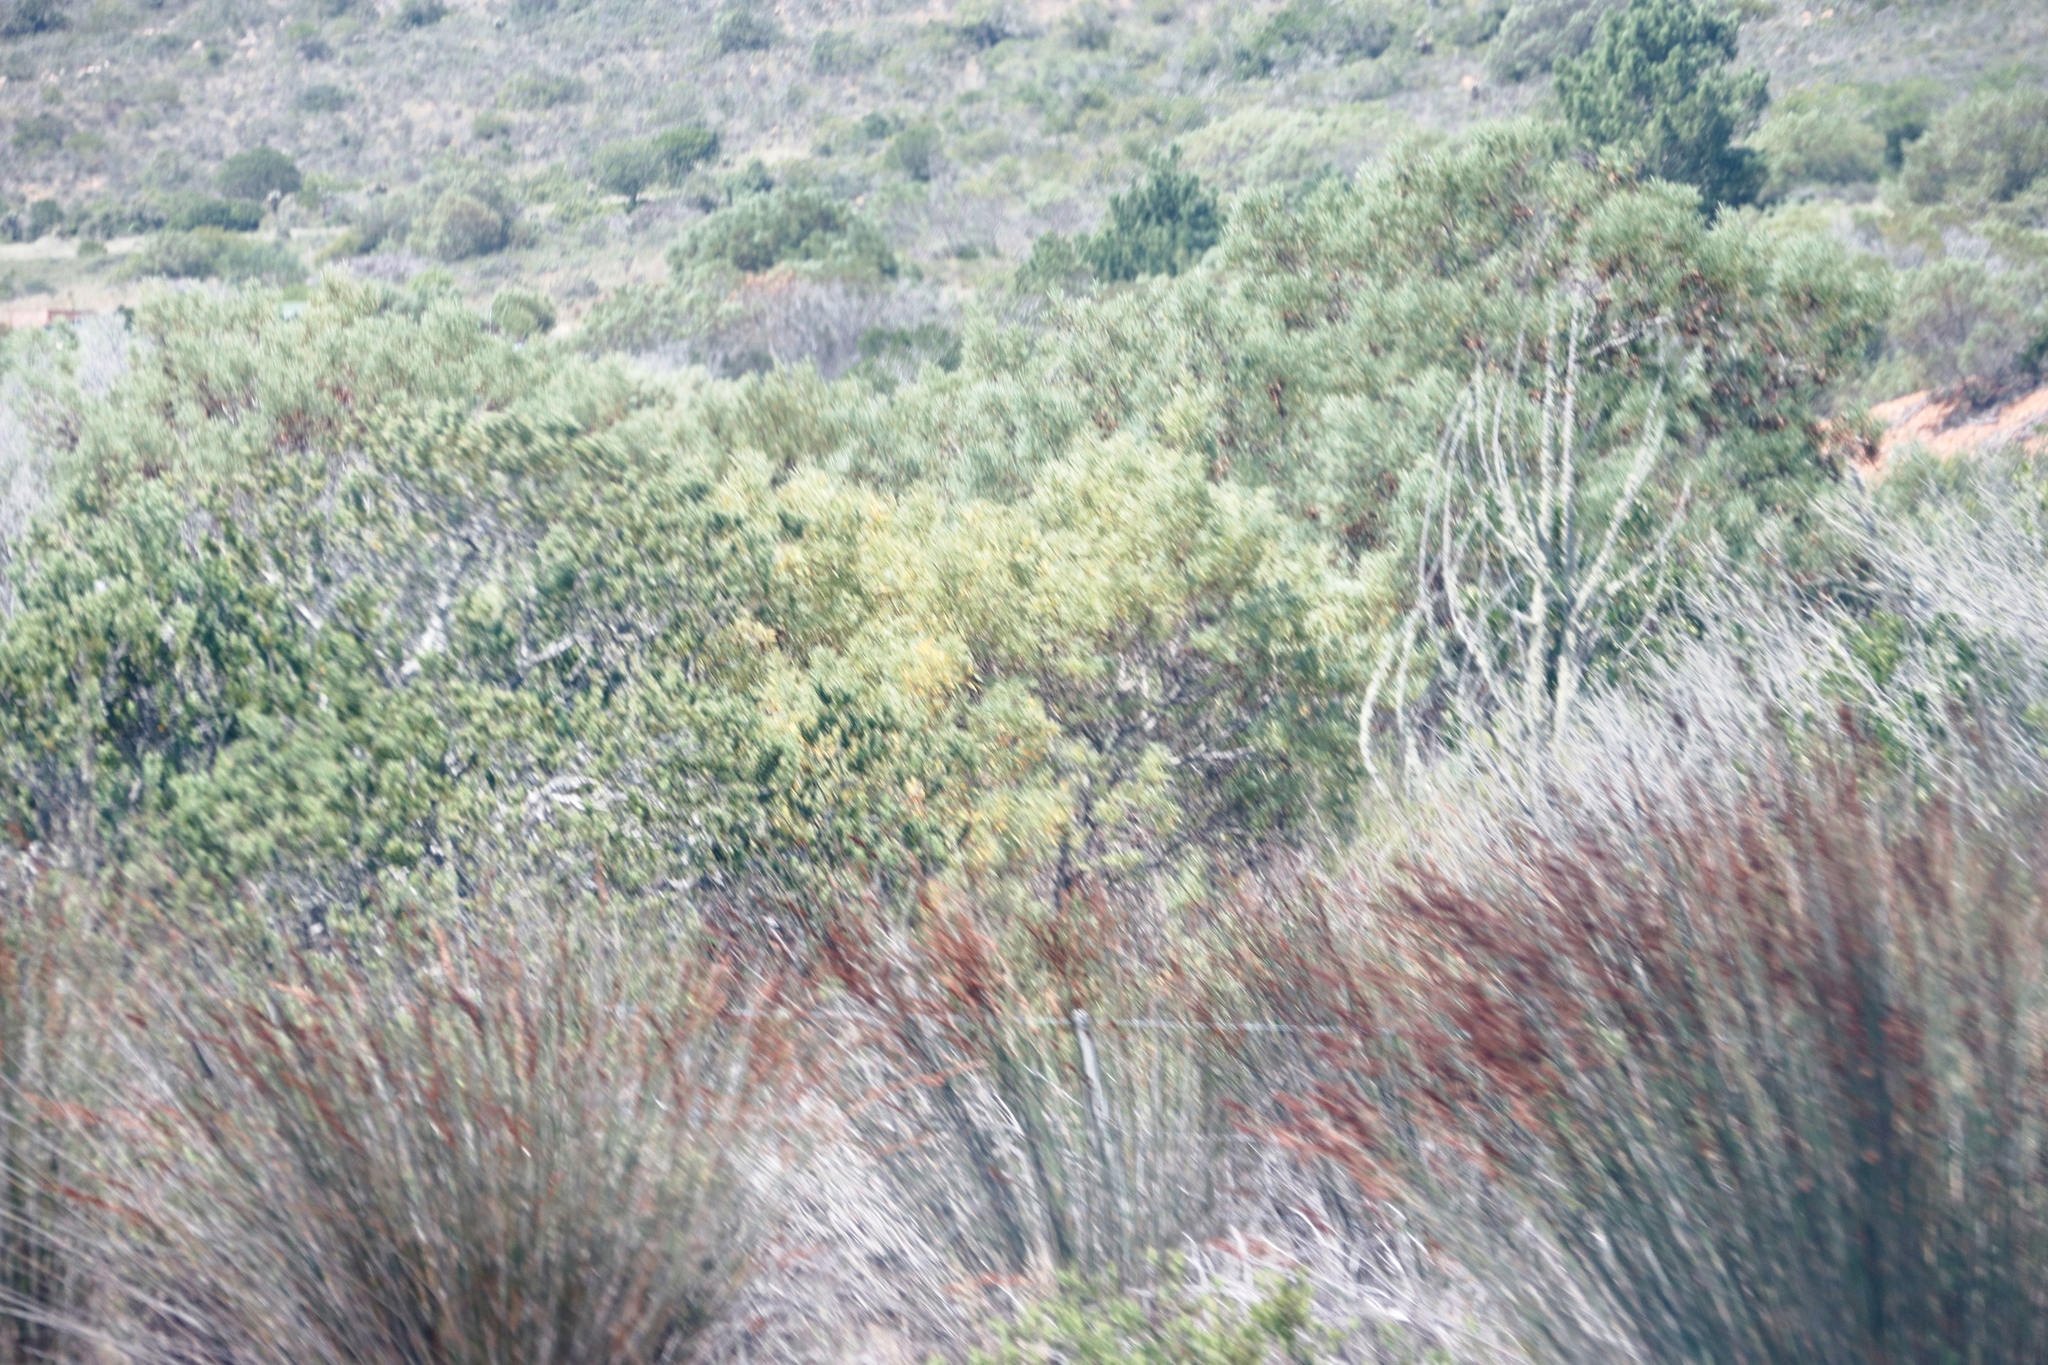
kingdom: Plantae
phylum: Tracheophyta
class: Liliopsida
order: Poales
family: Restionaceae
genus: Thamnochortus
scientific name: Thamnochortus insignis
